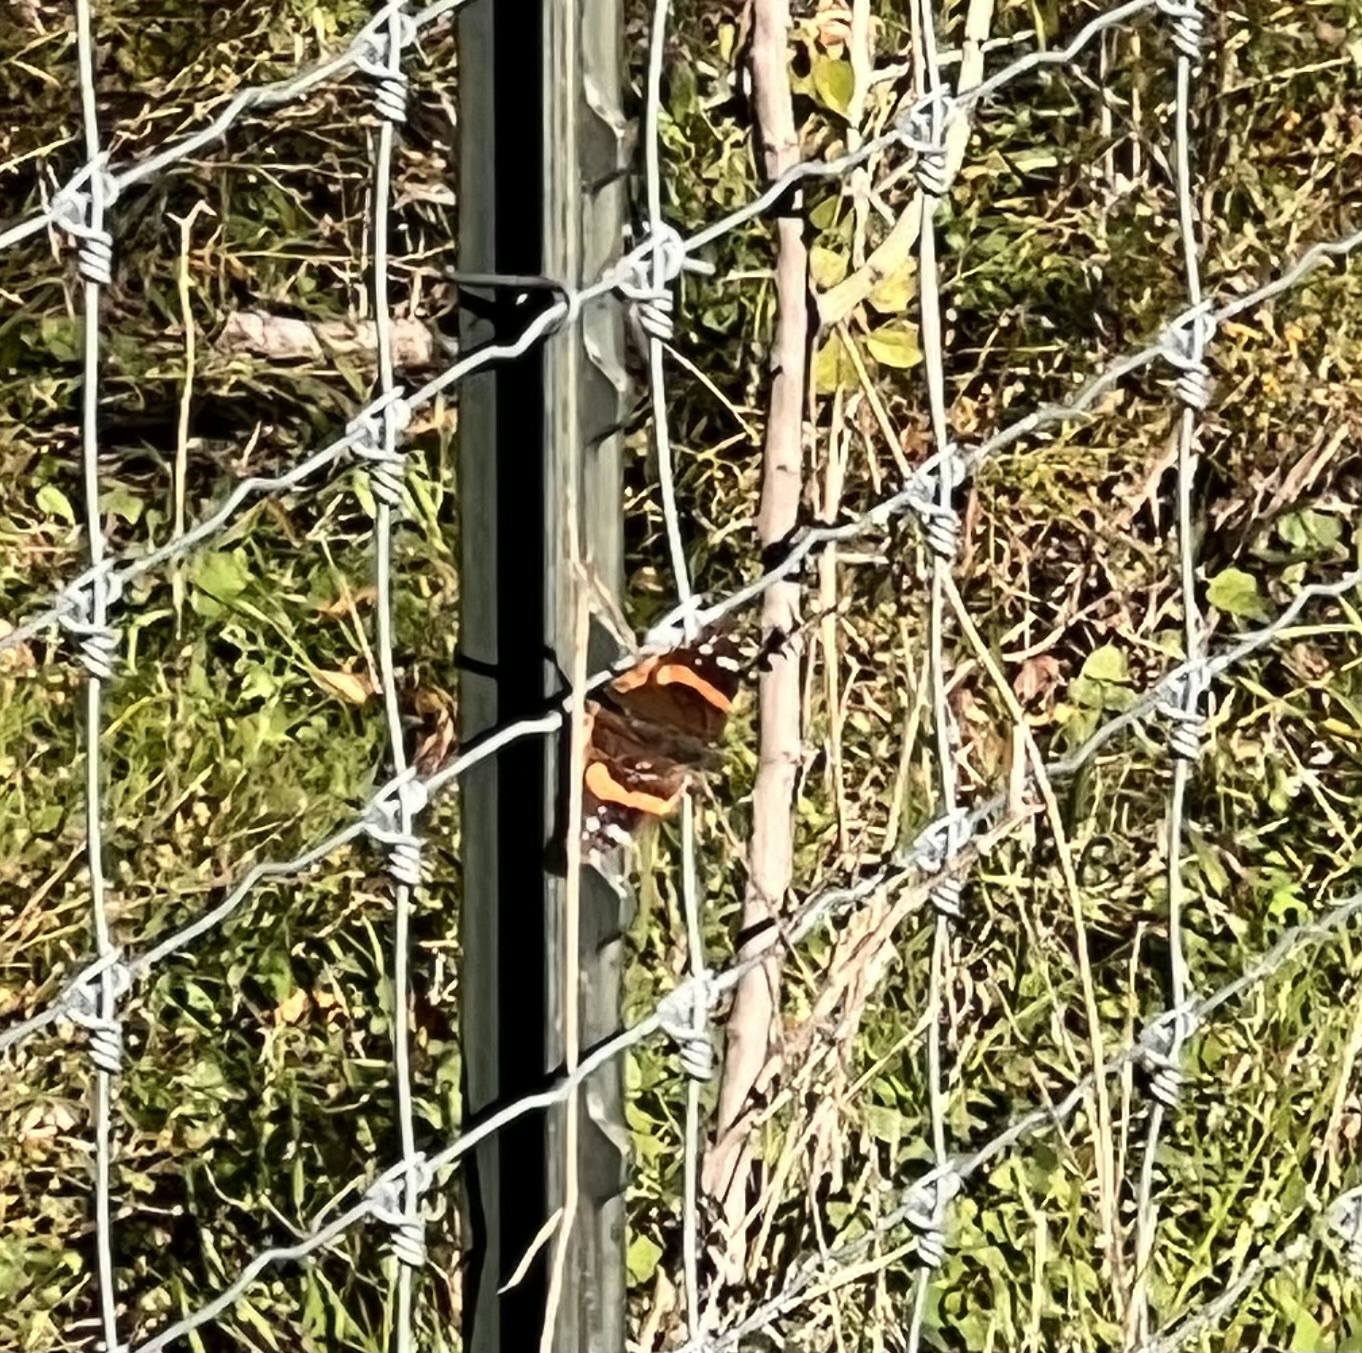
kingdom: Animalia
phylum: Arthropoda
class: Insecta
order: Lepidoptera
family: Nymphalidae
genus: Vanessa
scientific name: Vanessa atalanta
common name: Red admiral
